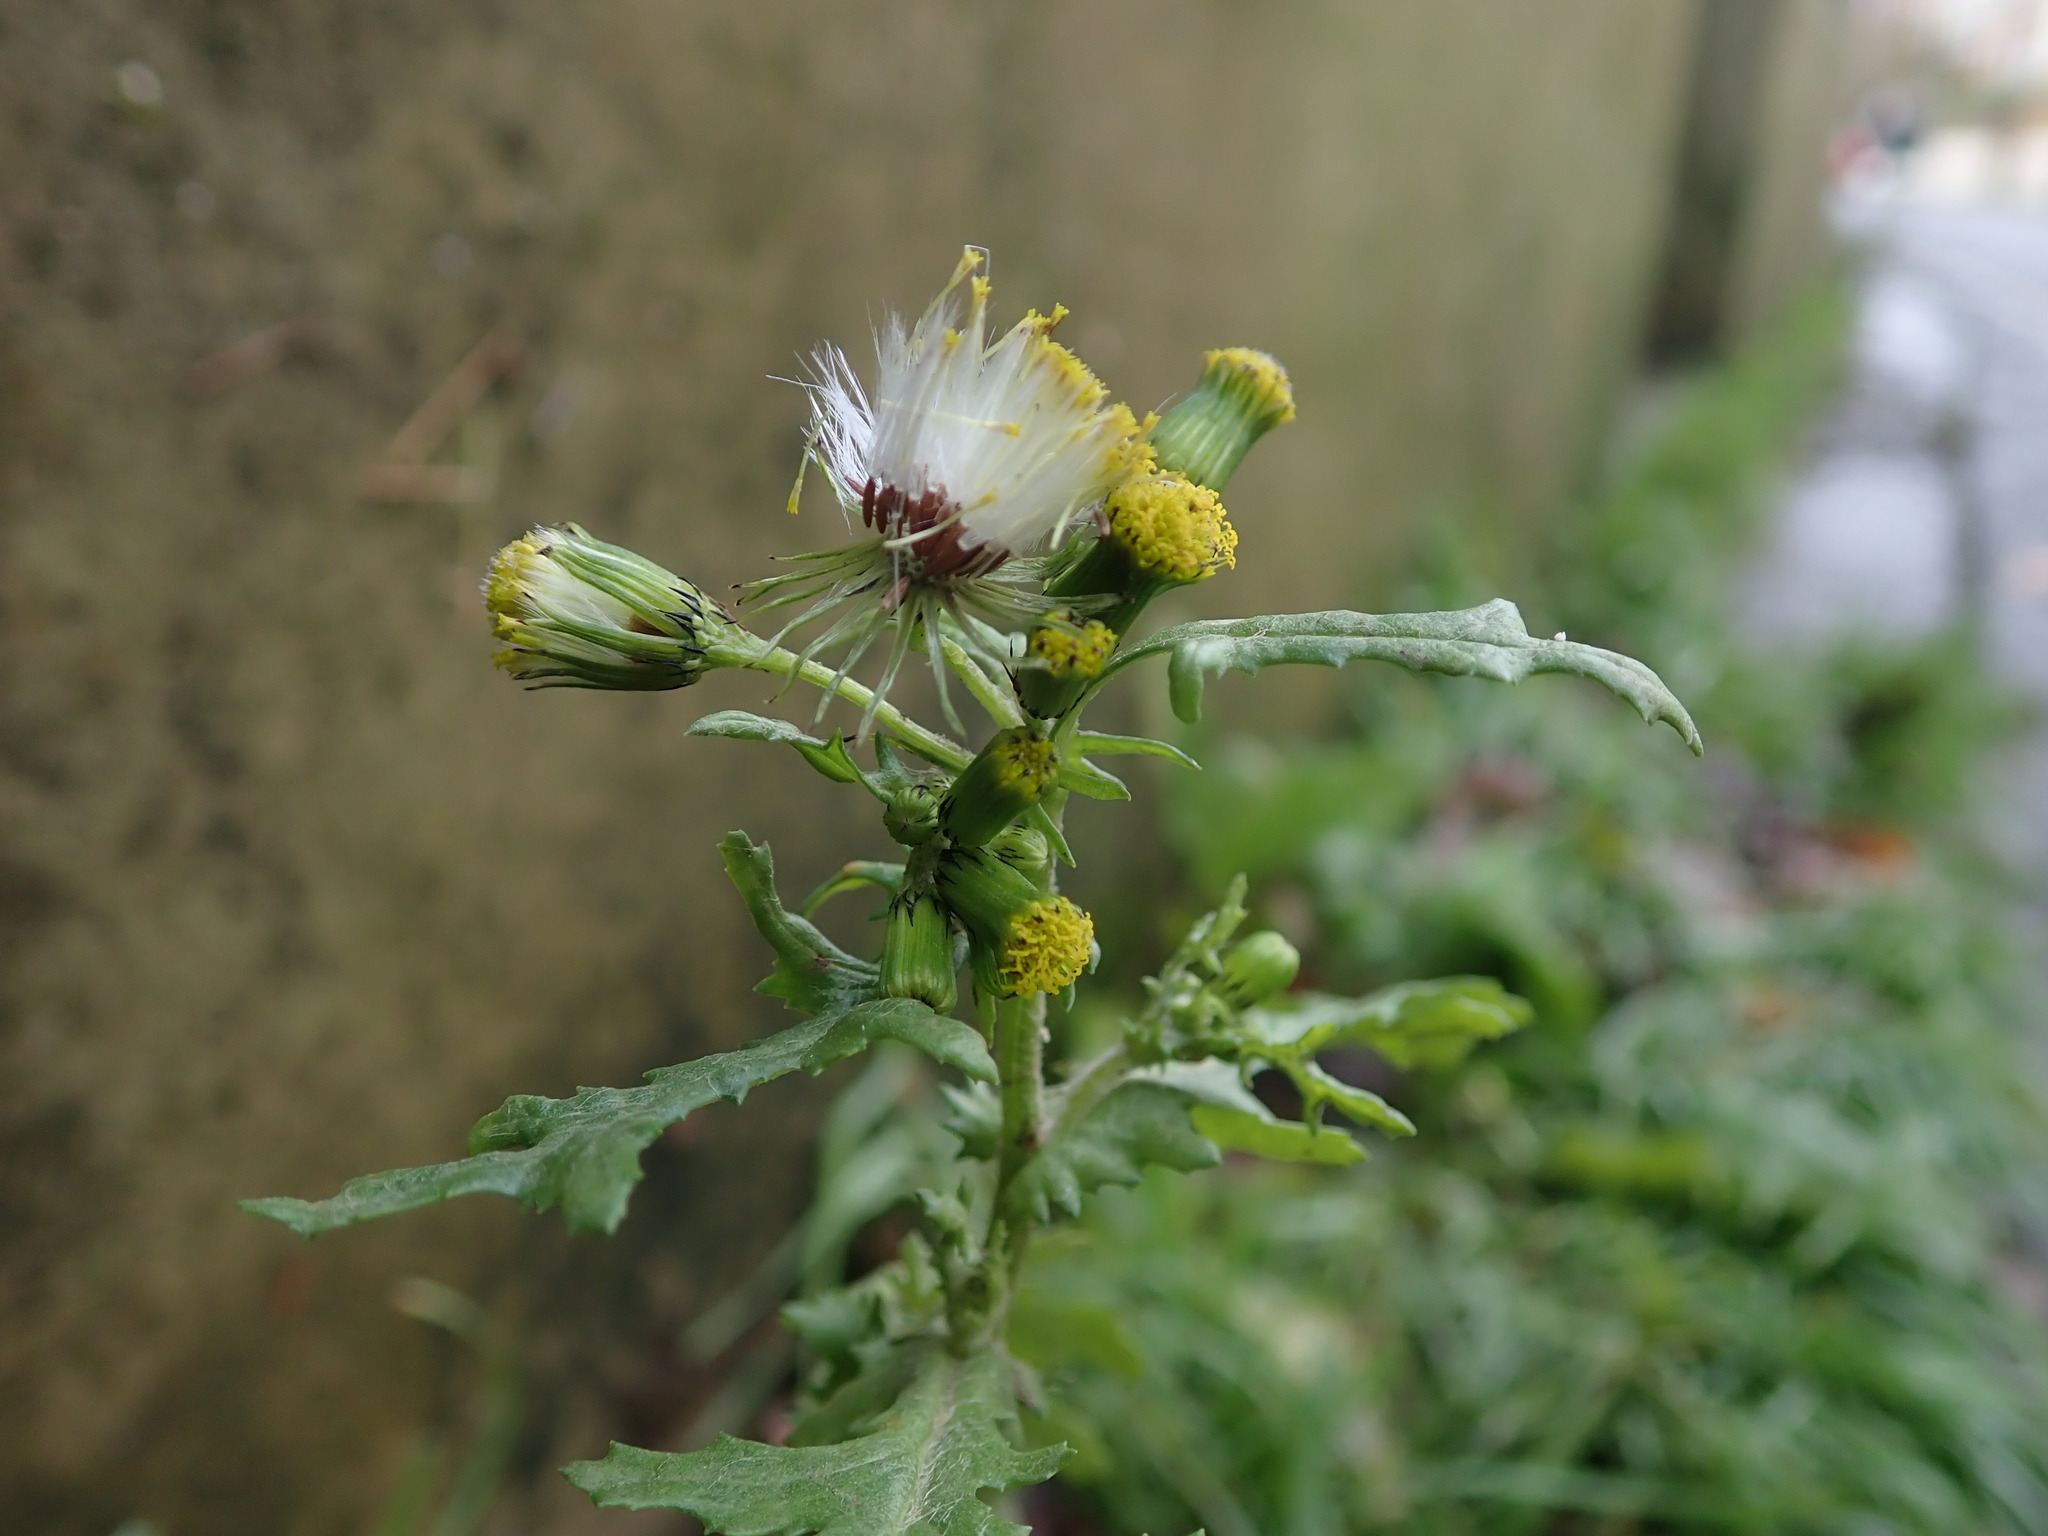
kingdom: Plantae
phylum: Tracheophyta
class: Magnoliopsida
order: Asterales
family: Asteraceae
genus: Senecio
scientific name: Senecio vulgaris
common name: Old-man-in-the-spring
